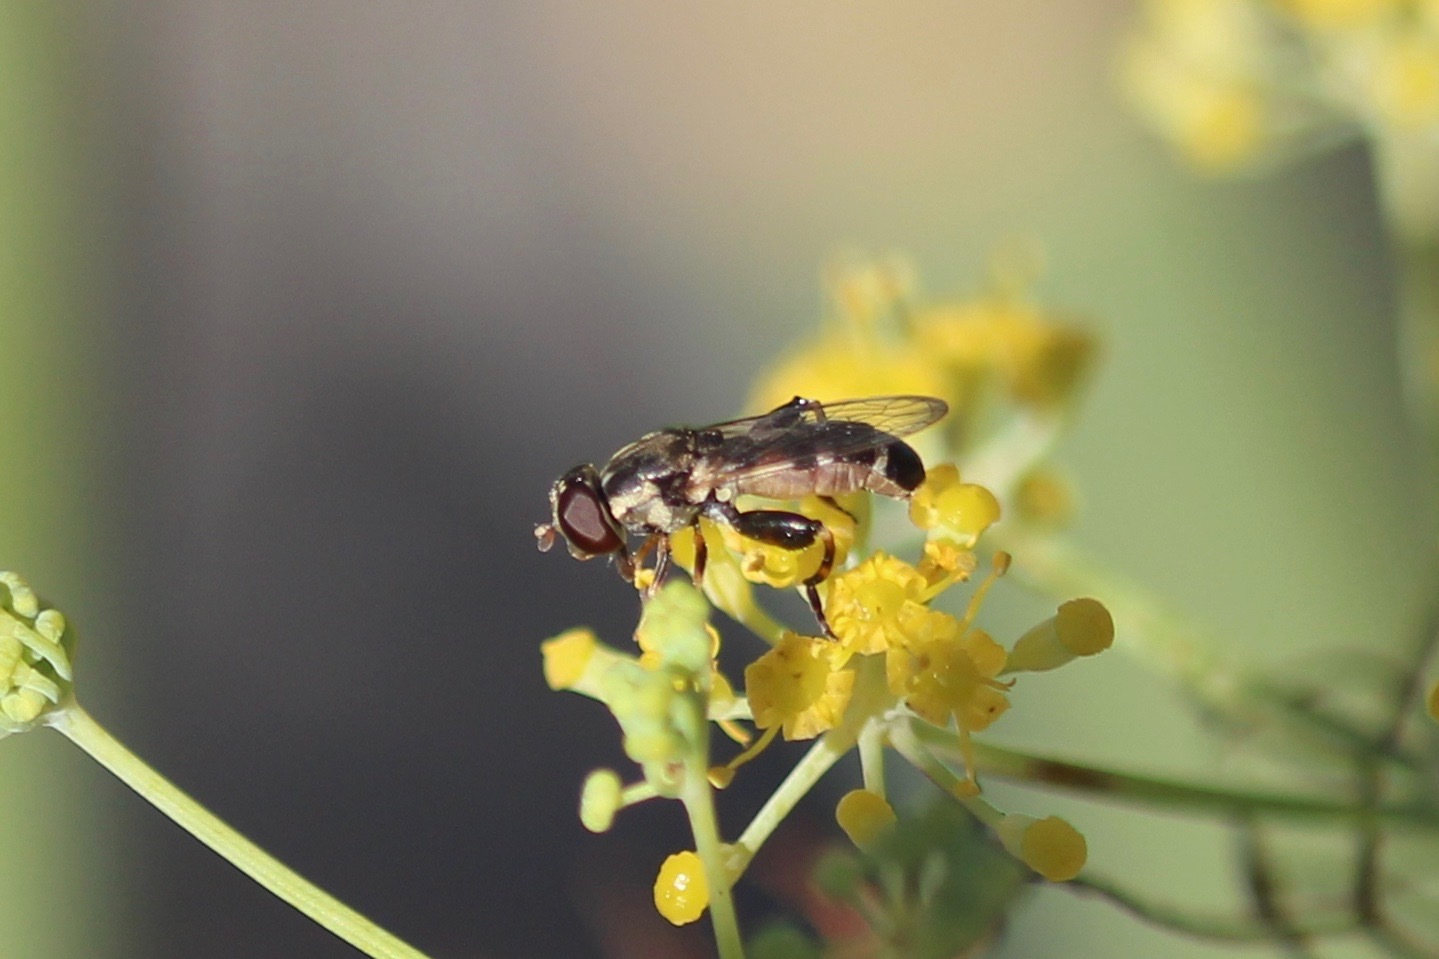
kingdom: Animalia
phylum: Arthropoda
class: Insecta
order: Diptera
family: Syrphidae
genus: Syritta
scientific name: Syritta pipiens
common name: Hover fly
